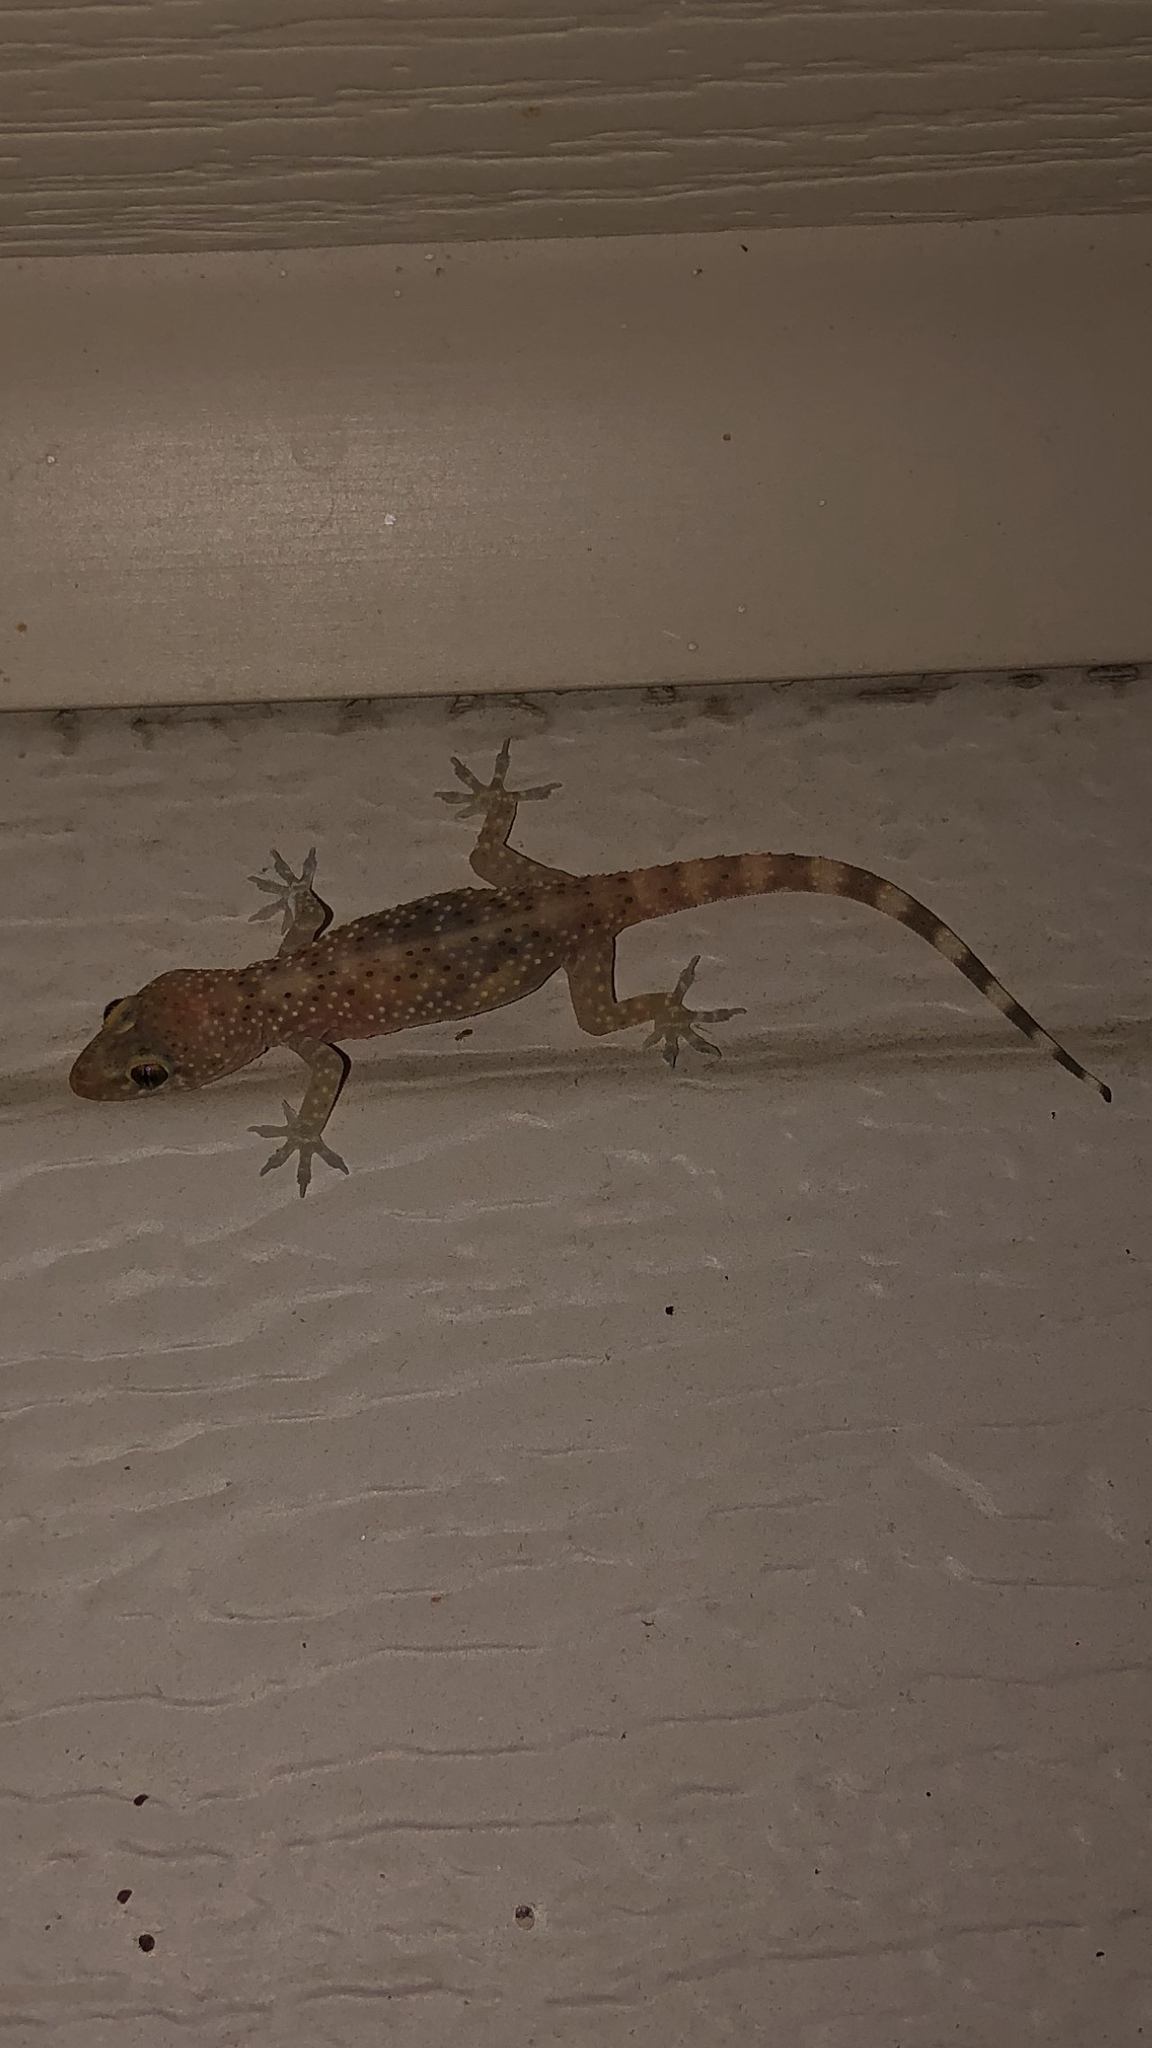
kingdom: Animalia
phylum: Chordata
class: Squamata
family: Gekkonidae
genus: Hemidactylus
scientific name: Hemidactylus turcicus
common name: Turkish gecko
